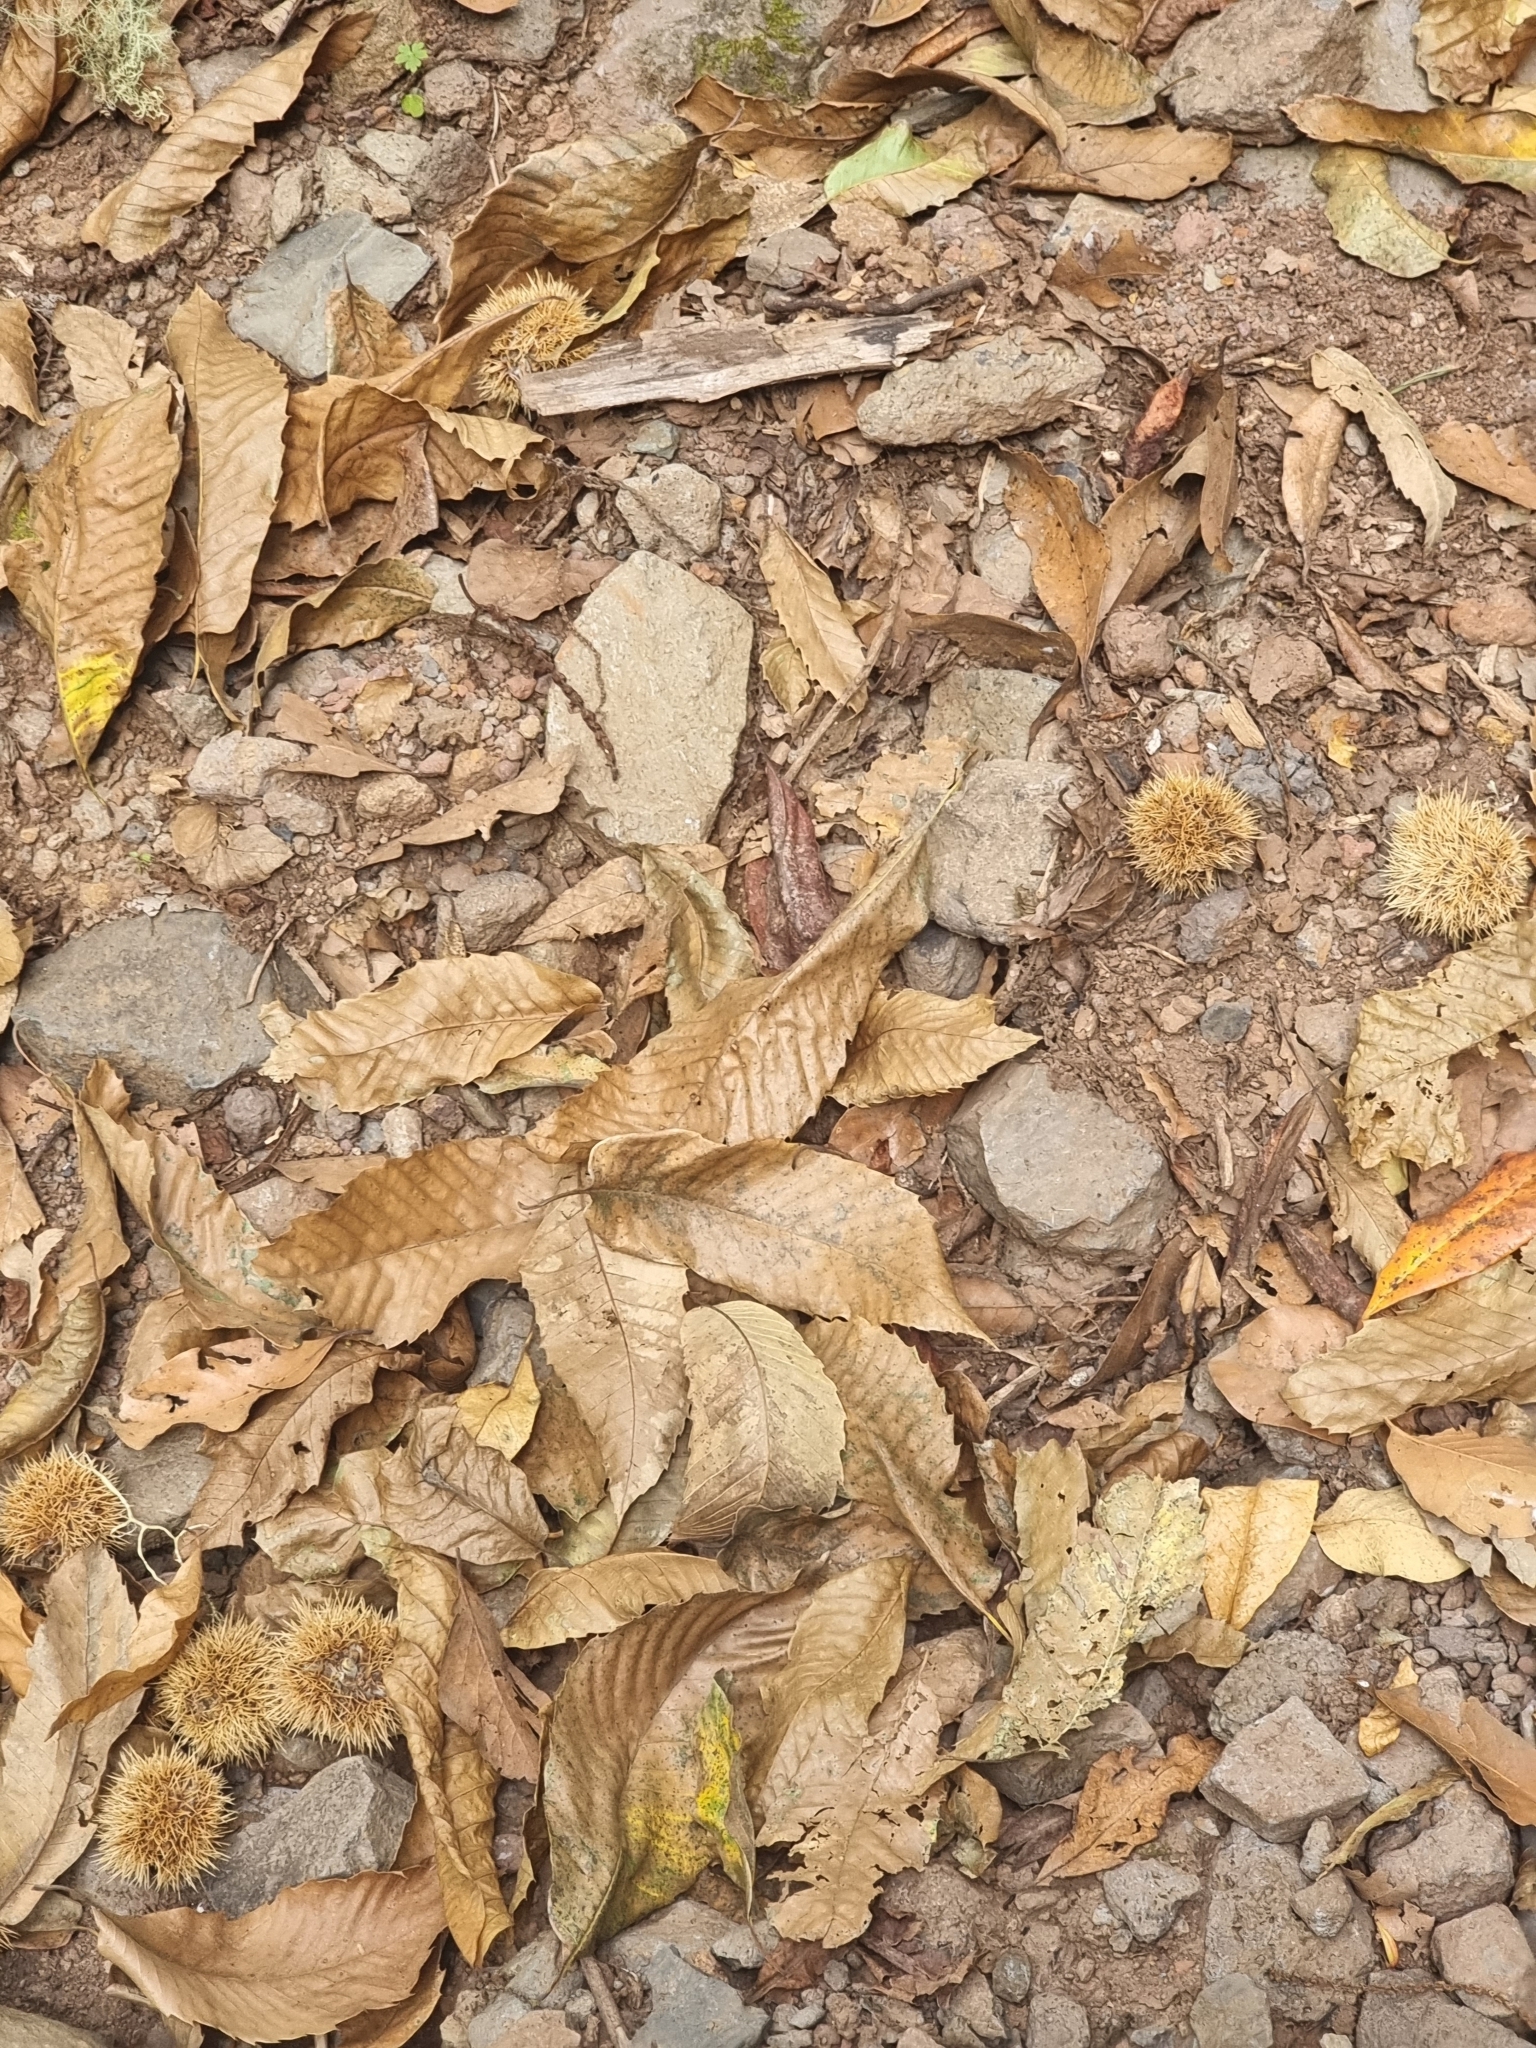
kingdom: Plantae
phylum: Tracheophyta
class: Magnoliopsida
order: Fagales
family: Fagaceae
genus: Castanea
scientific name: Castanea sativa
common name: Sweet chestnut
